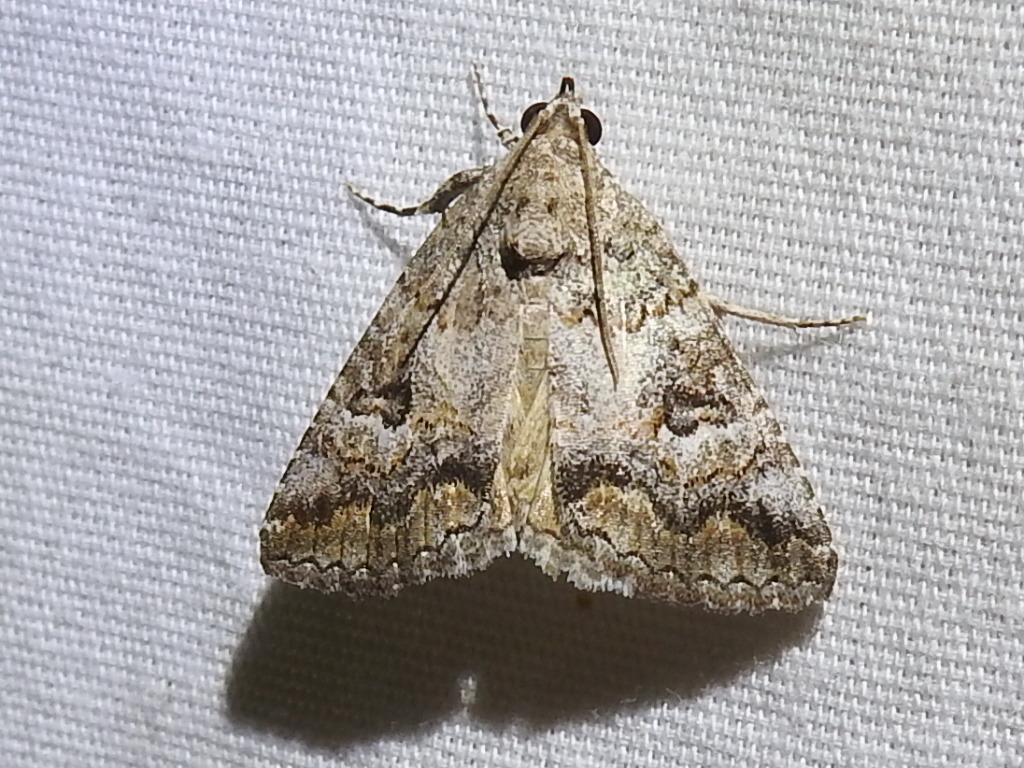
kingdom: Animalia
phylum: Arthropoda
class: Insecta
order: Lepidoptera
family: Erebidae
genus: Eubolina
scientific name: Eubolina impartialis
